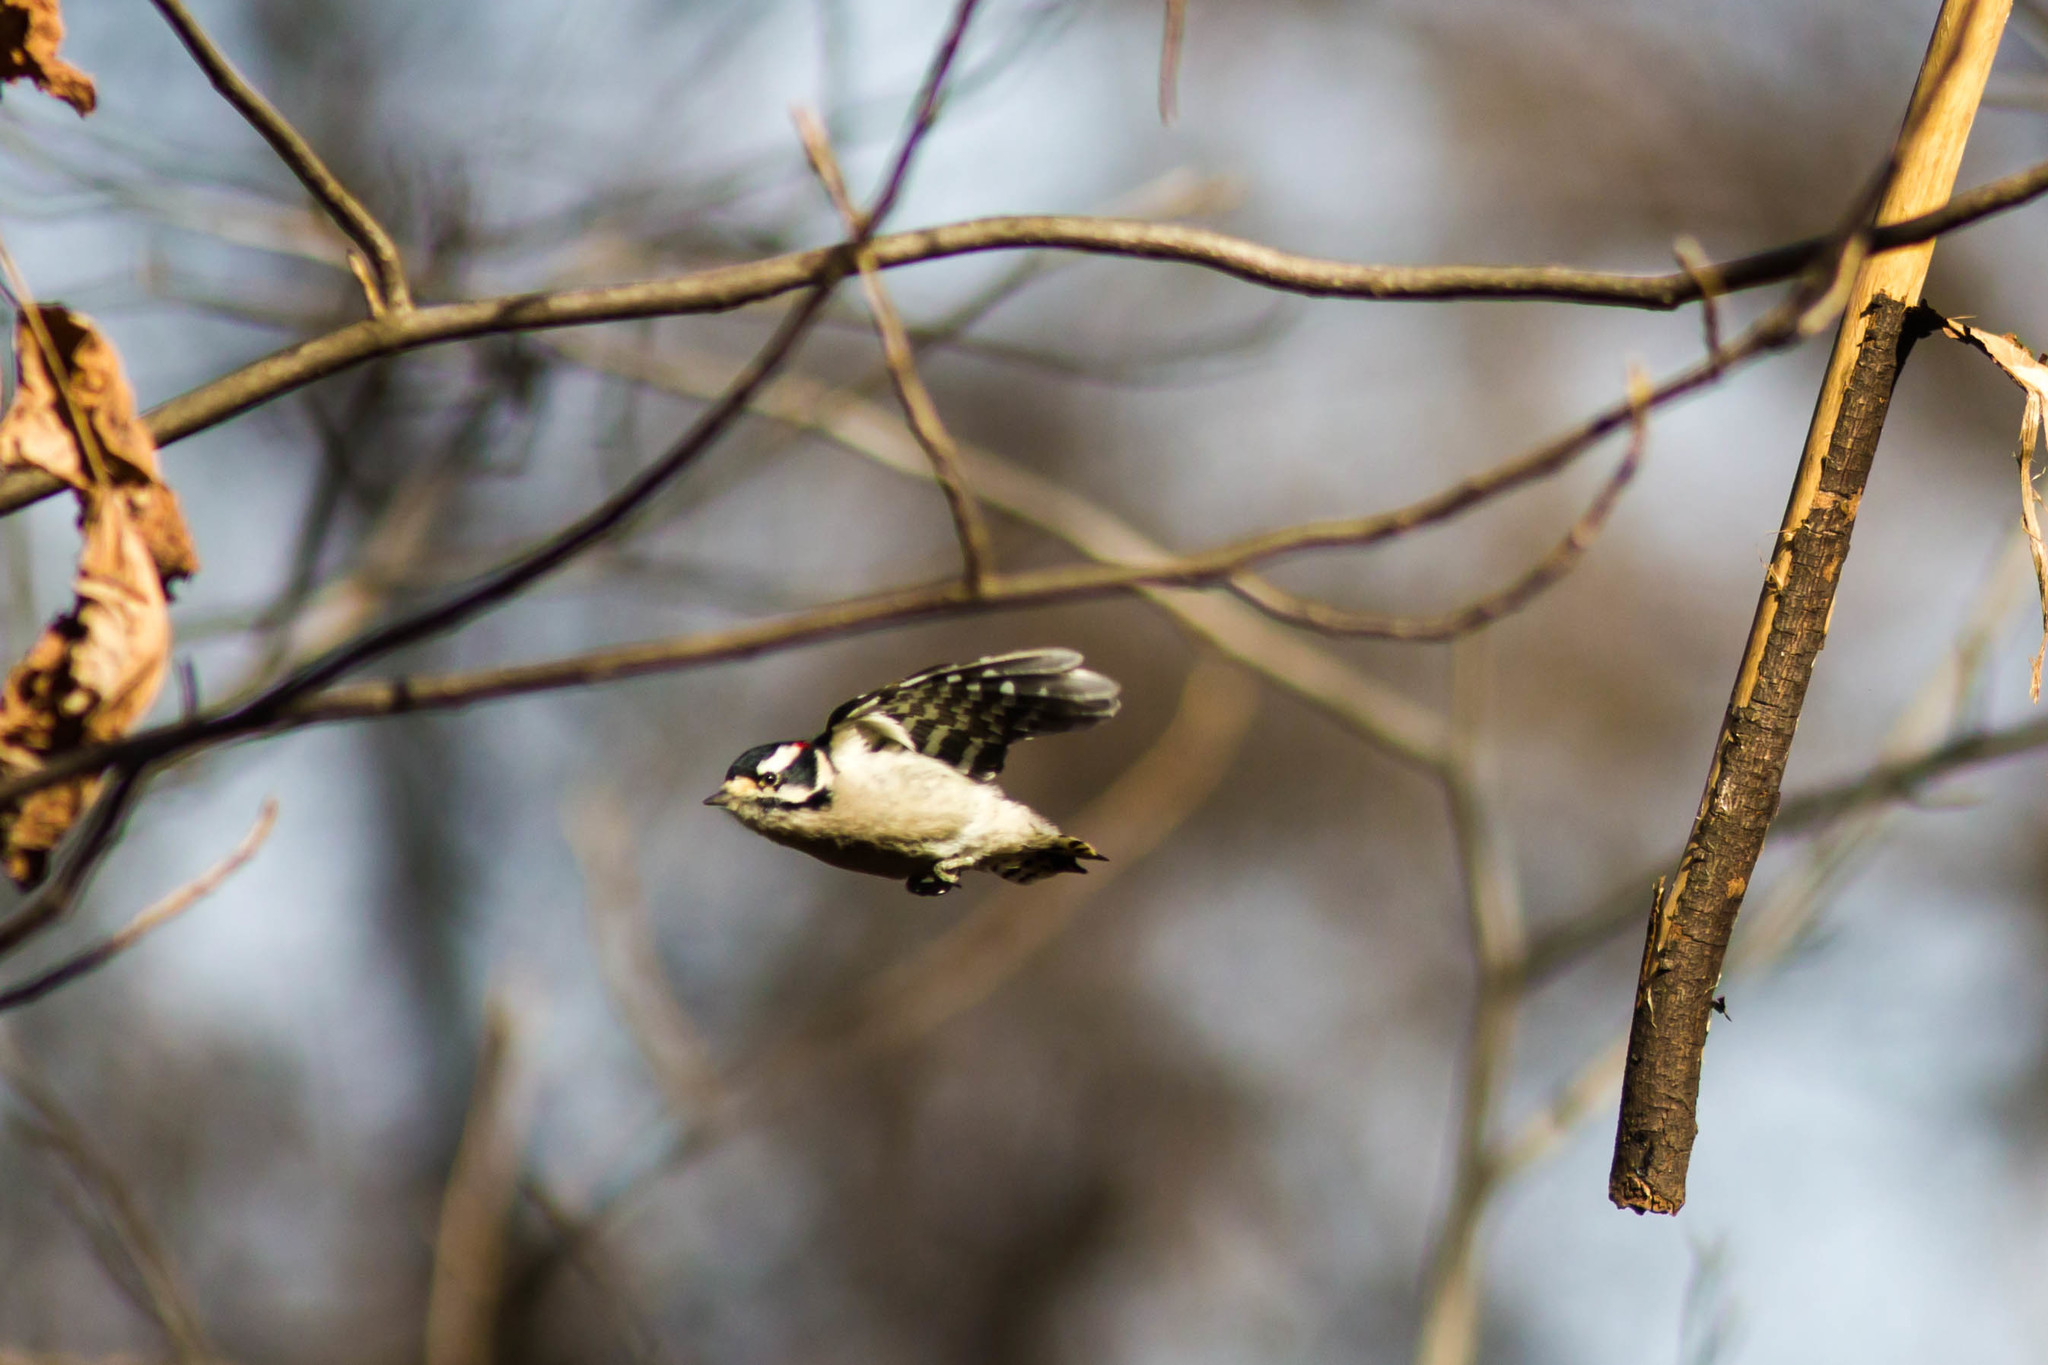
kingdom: Animalia
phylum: Chordata
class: Aves
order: Piciformes
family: Picidae
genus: Dryobates
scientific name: Dryobates pubescens
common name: Downy woodpecker
